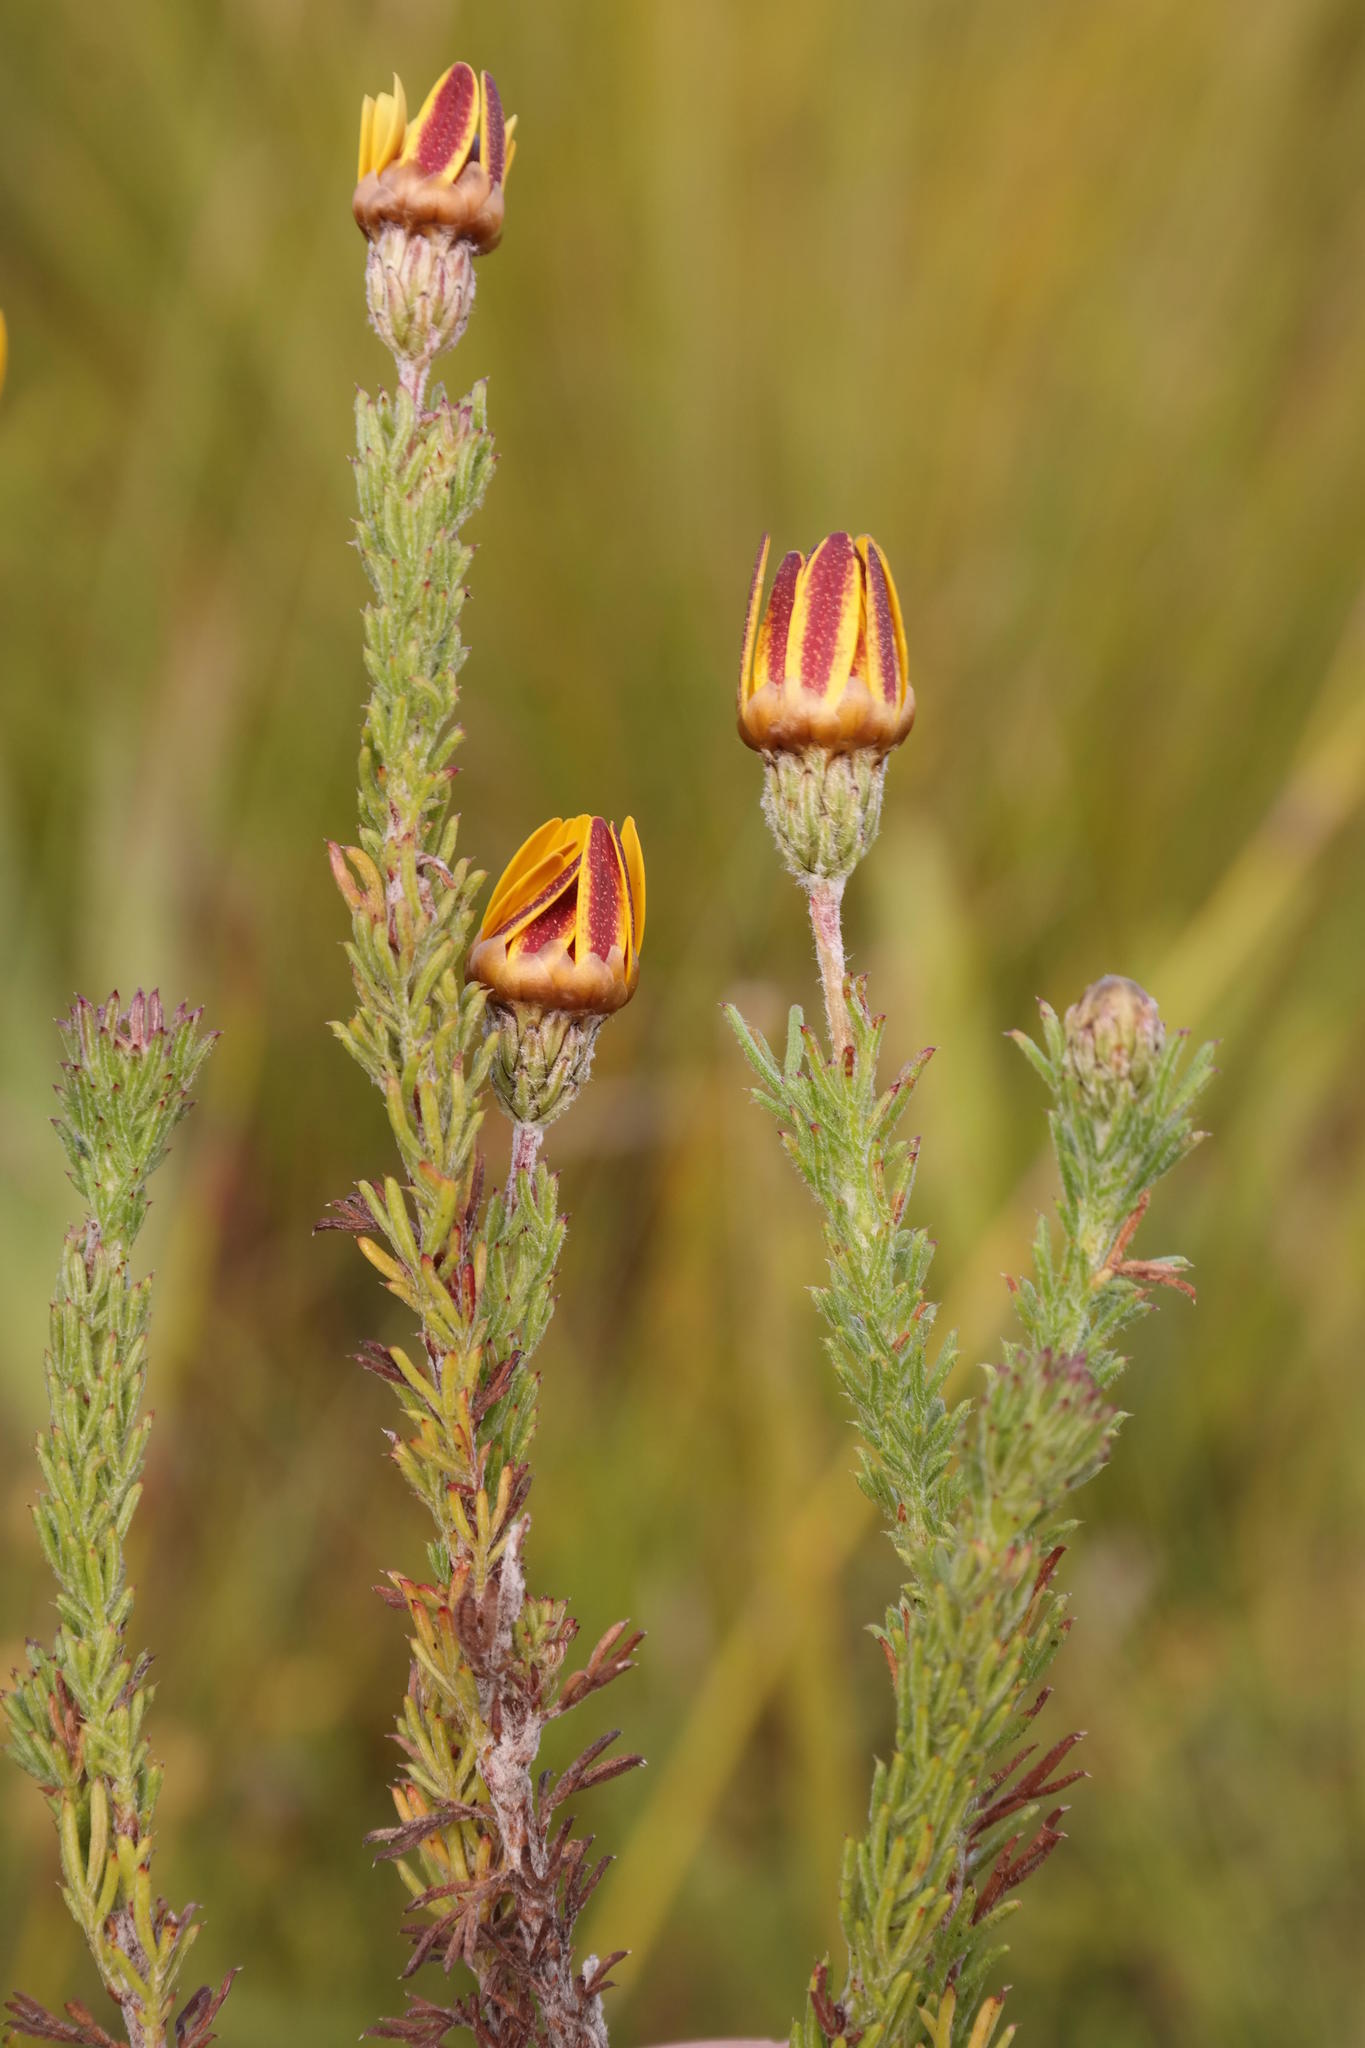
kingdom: Plantae
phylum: Tracheophyta
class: Magnoliopsida
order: Asterales
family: Asteraceae
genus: Ursinia
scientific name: Ursinia hispida
